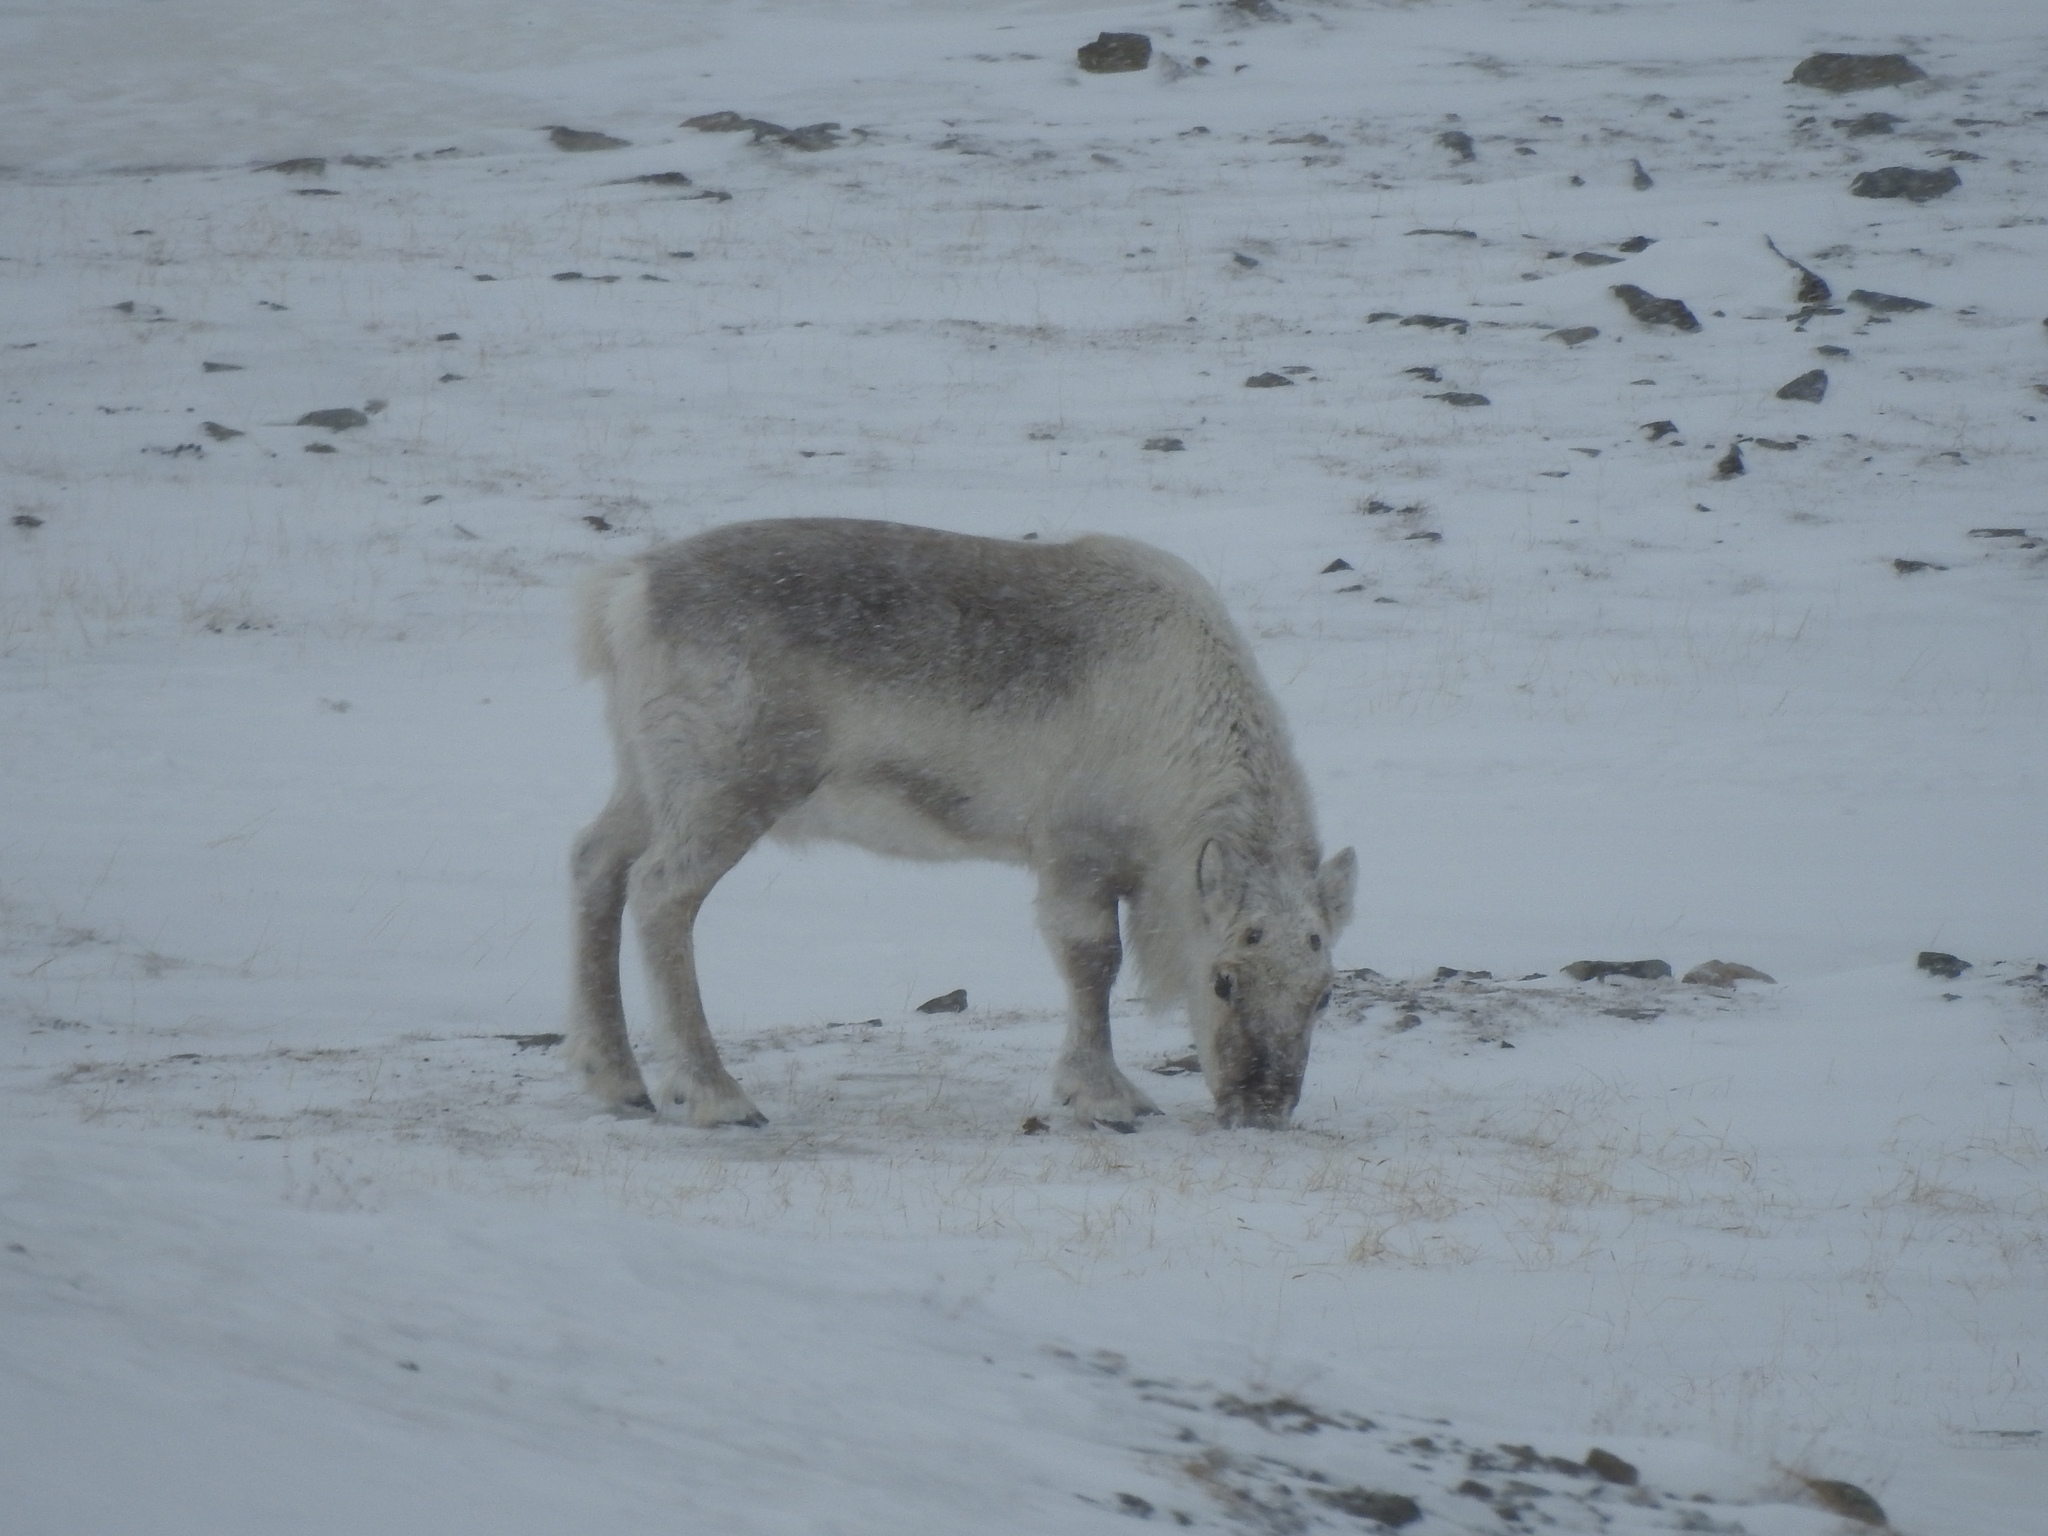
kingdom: Animalia
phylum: Chordata
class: Mammalia
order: Artiodactyla
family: Cervidae
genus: Rangifer
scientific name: Rangifer tarandus
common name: Reindeer
